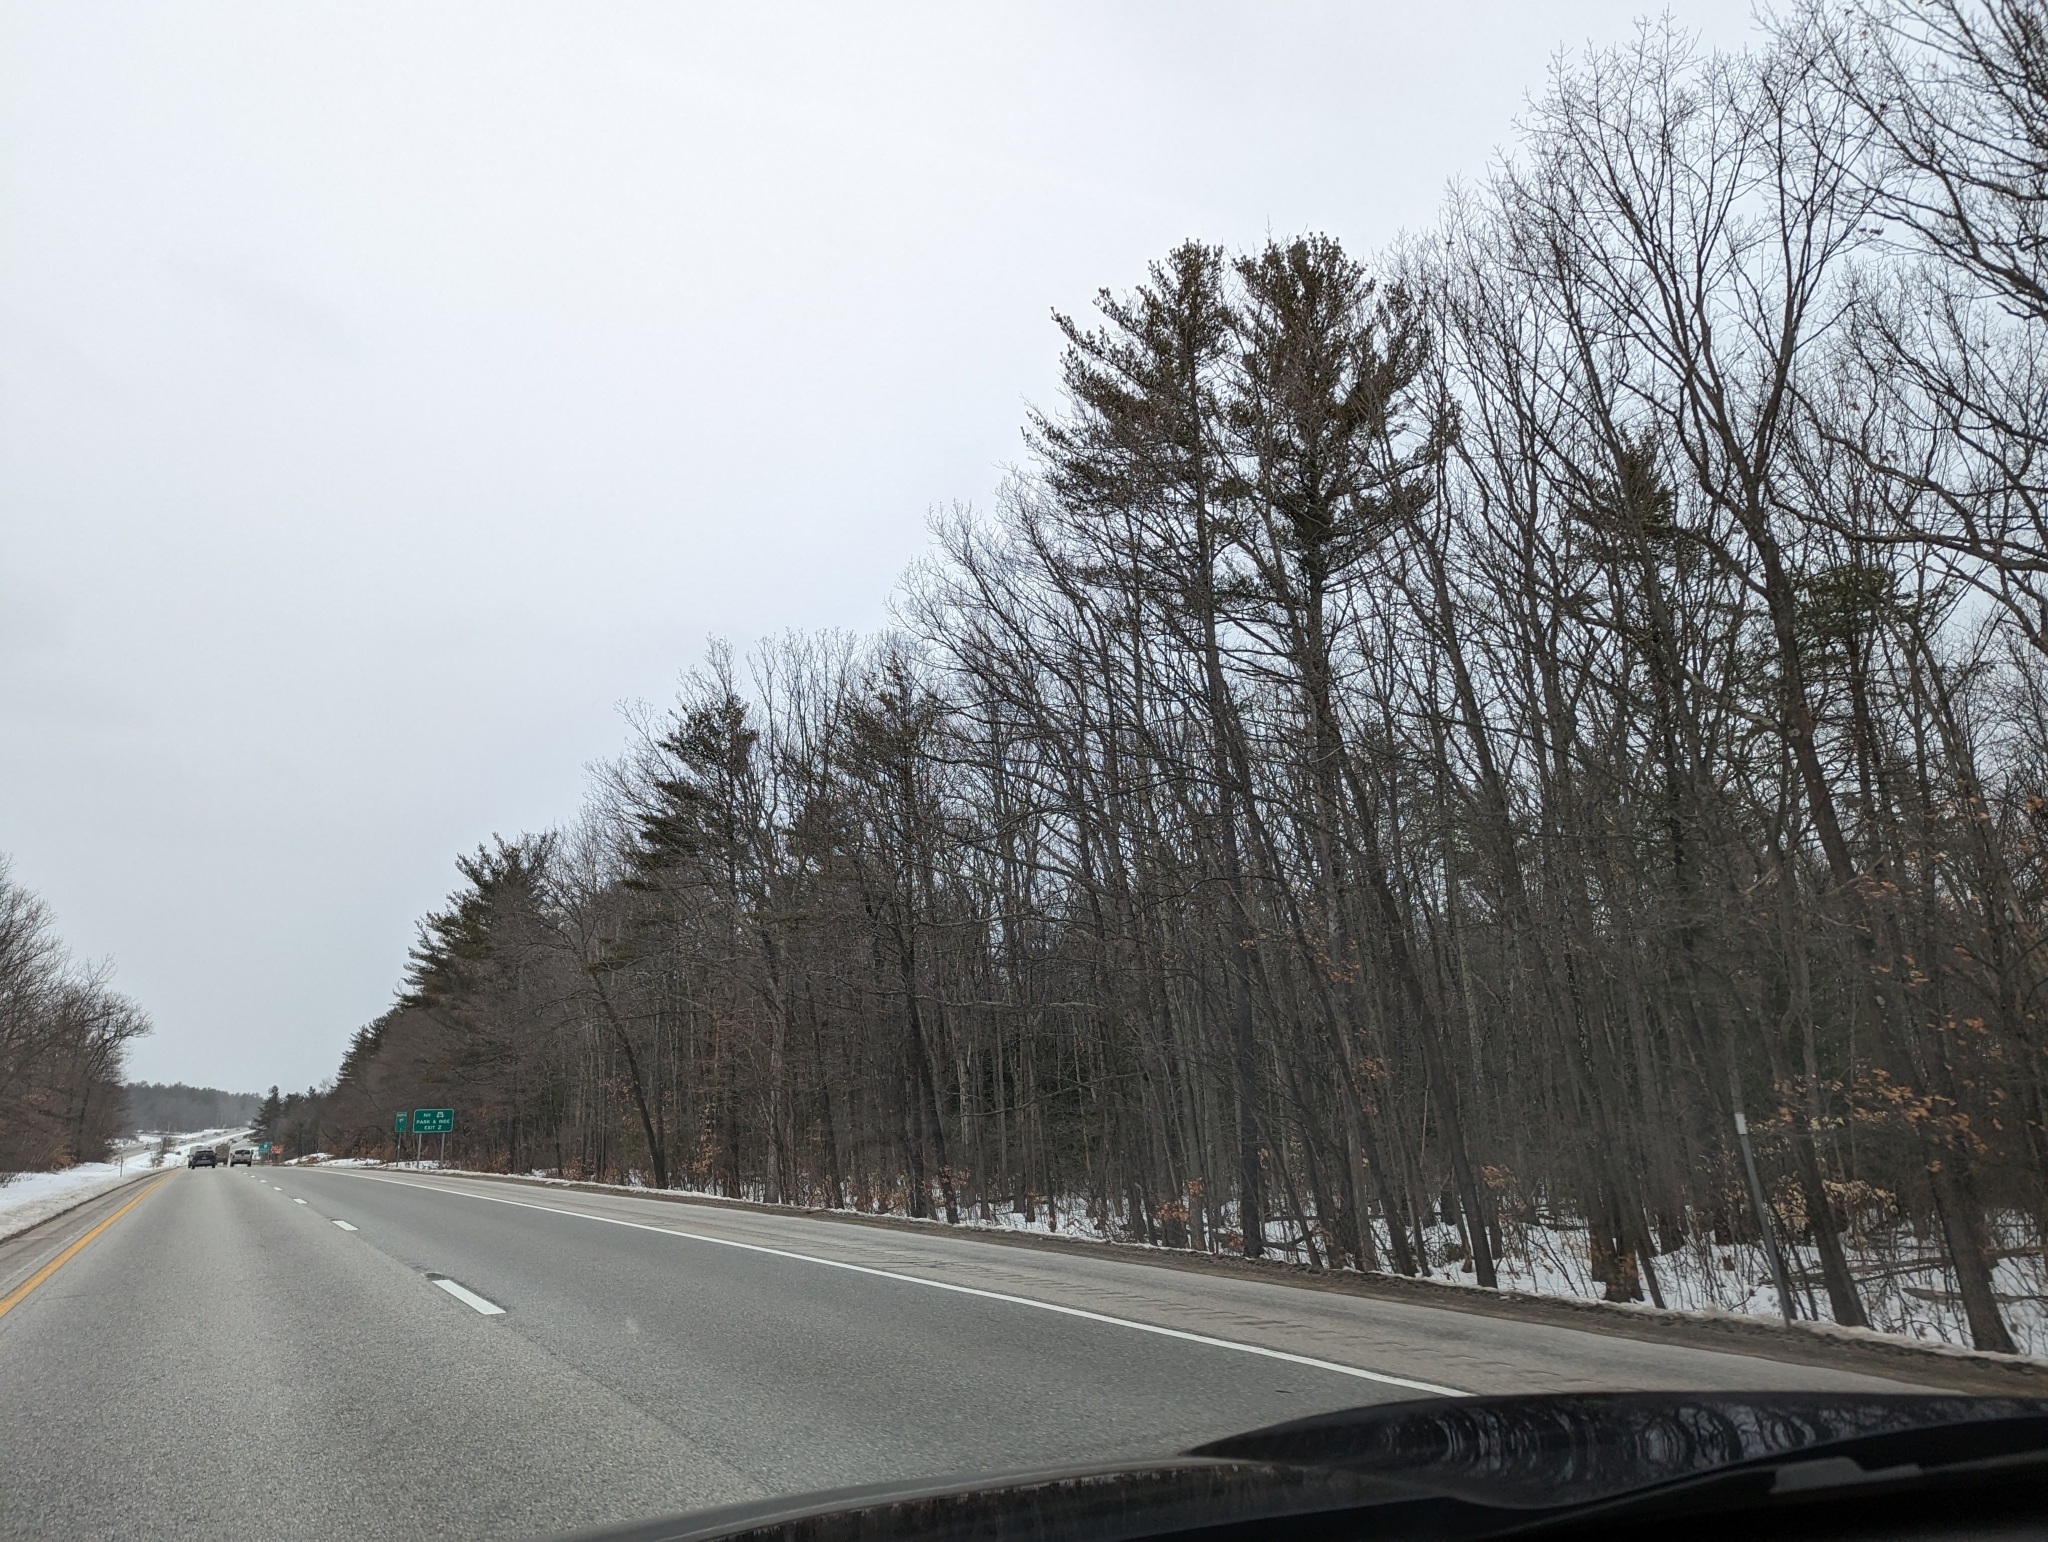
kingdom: Plantae
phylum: Tracheophyta
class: Pinopsida
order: Pinales
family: Pinaceae
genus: Pinus
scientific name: Pinus strobus
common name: Weymouth pine
